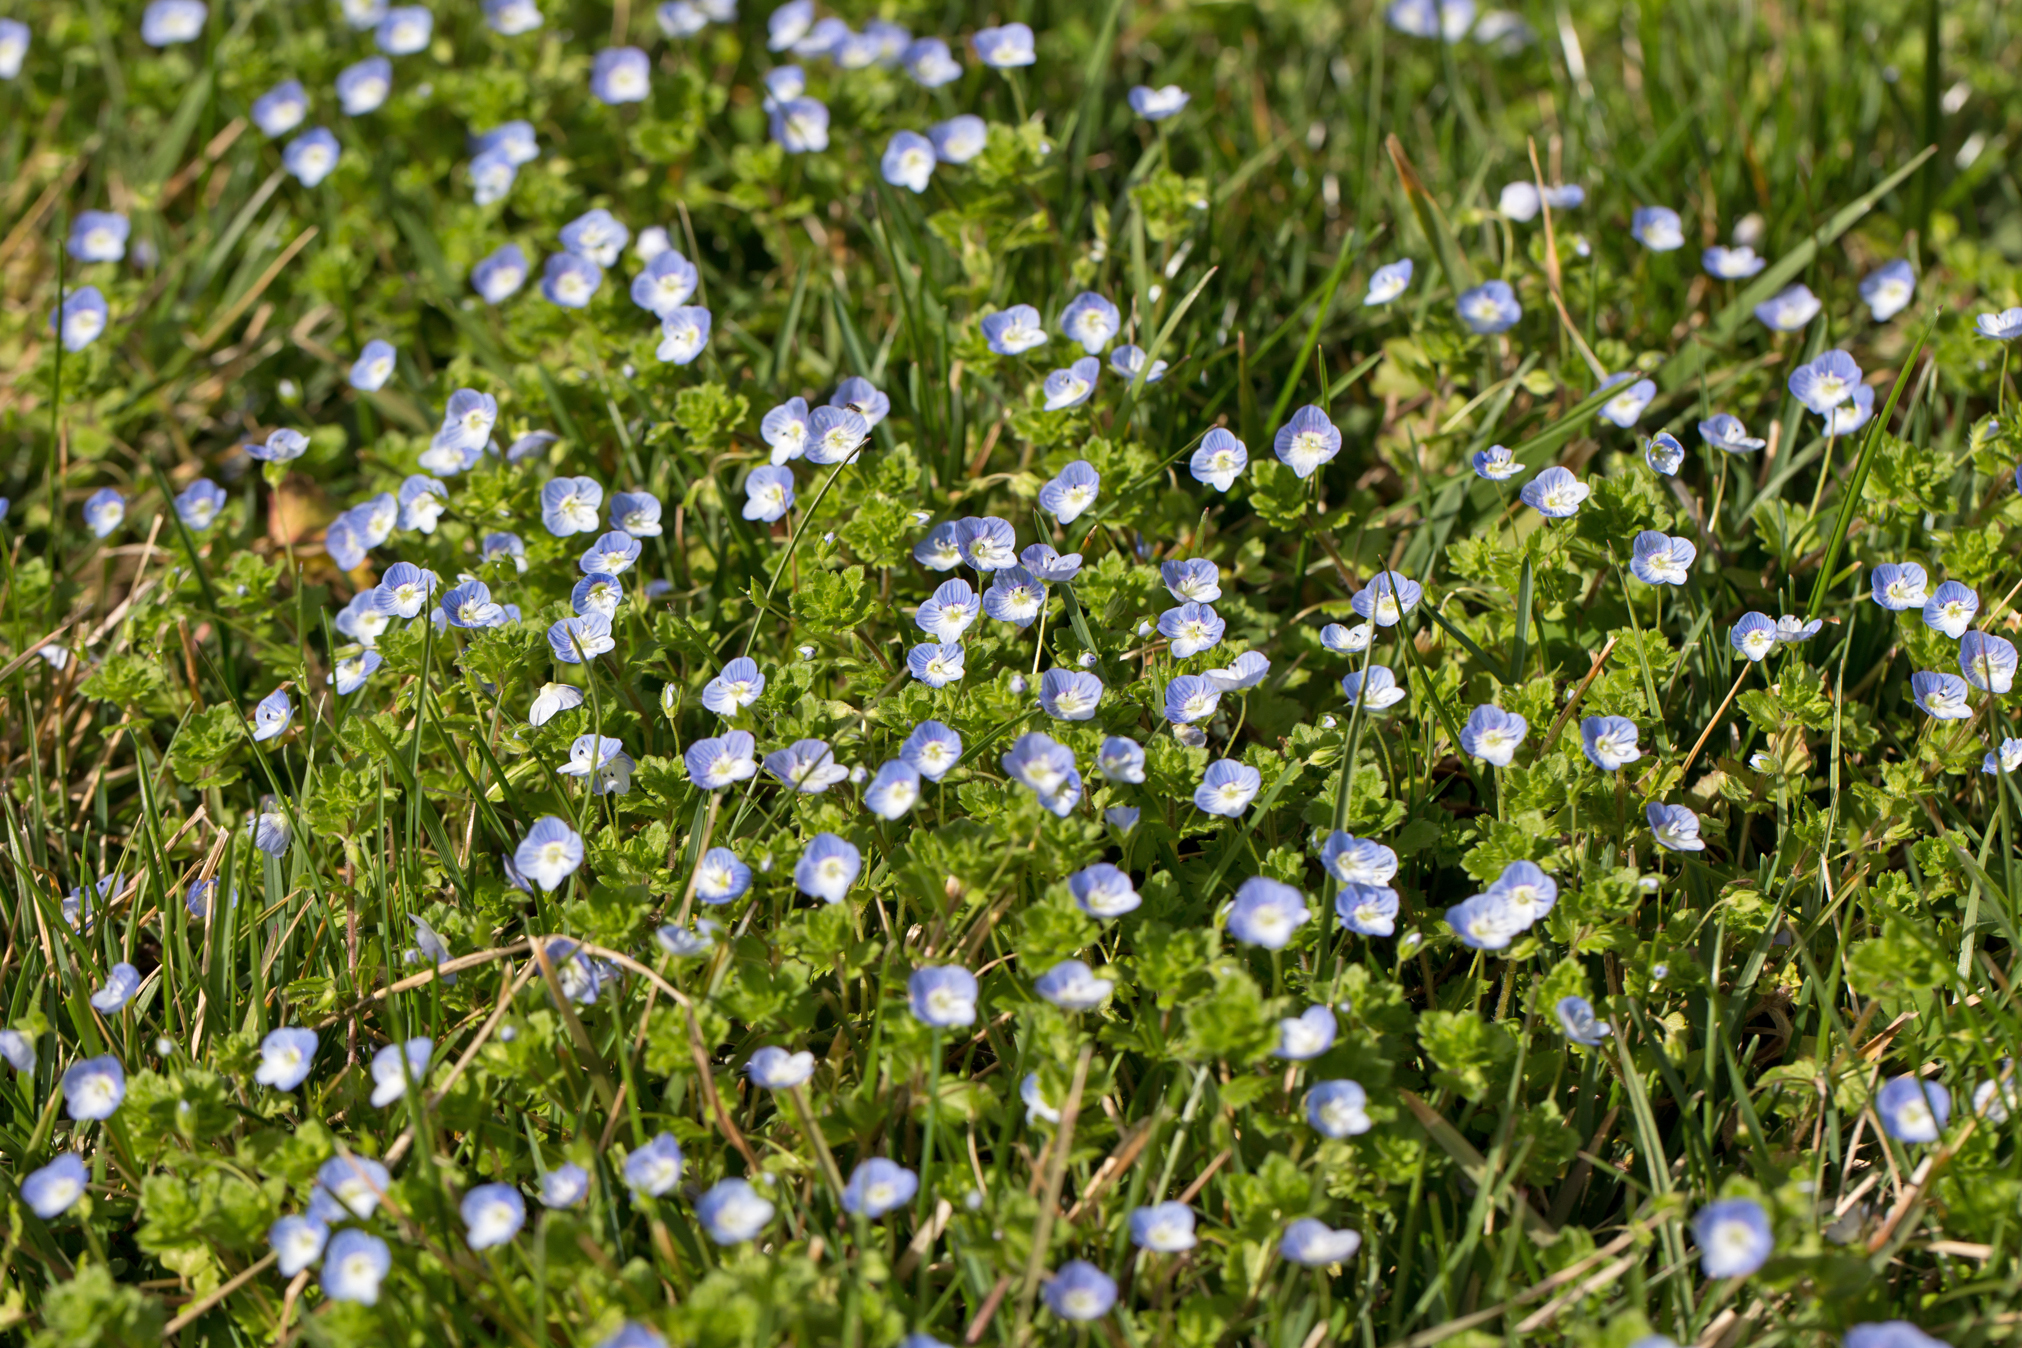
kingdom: Plantae
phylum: Tracheophyta
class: Magnoliopsida
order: Lamiales
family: Plantaginaceae
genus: Veronica
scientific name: Veronica persica
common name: Common field-speedwell
